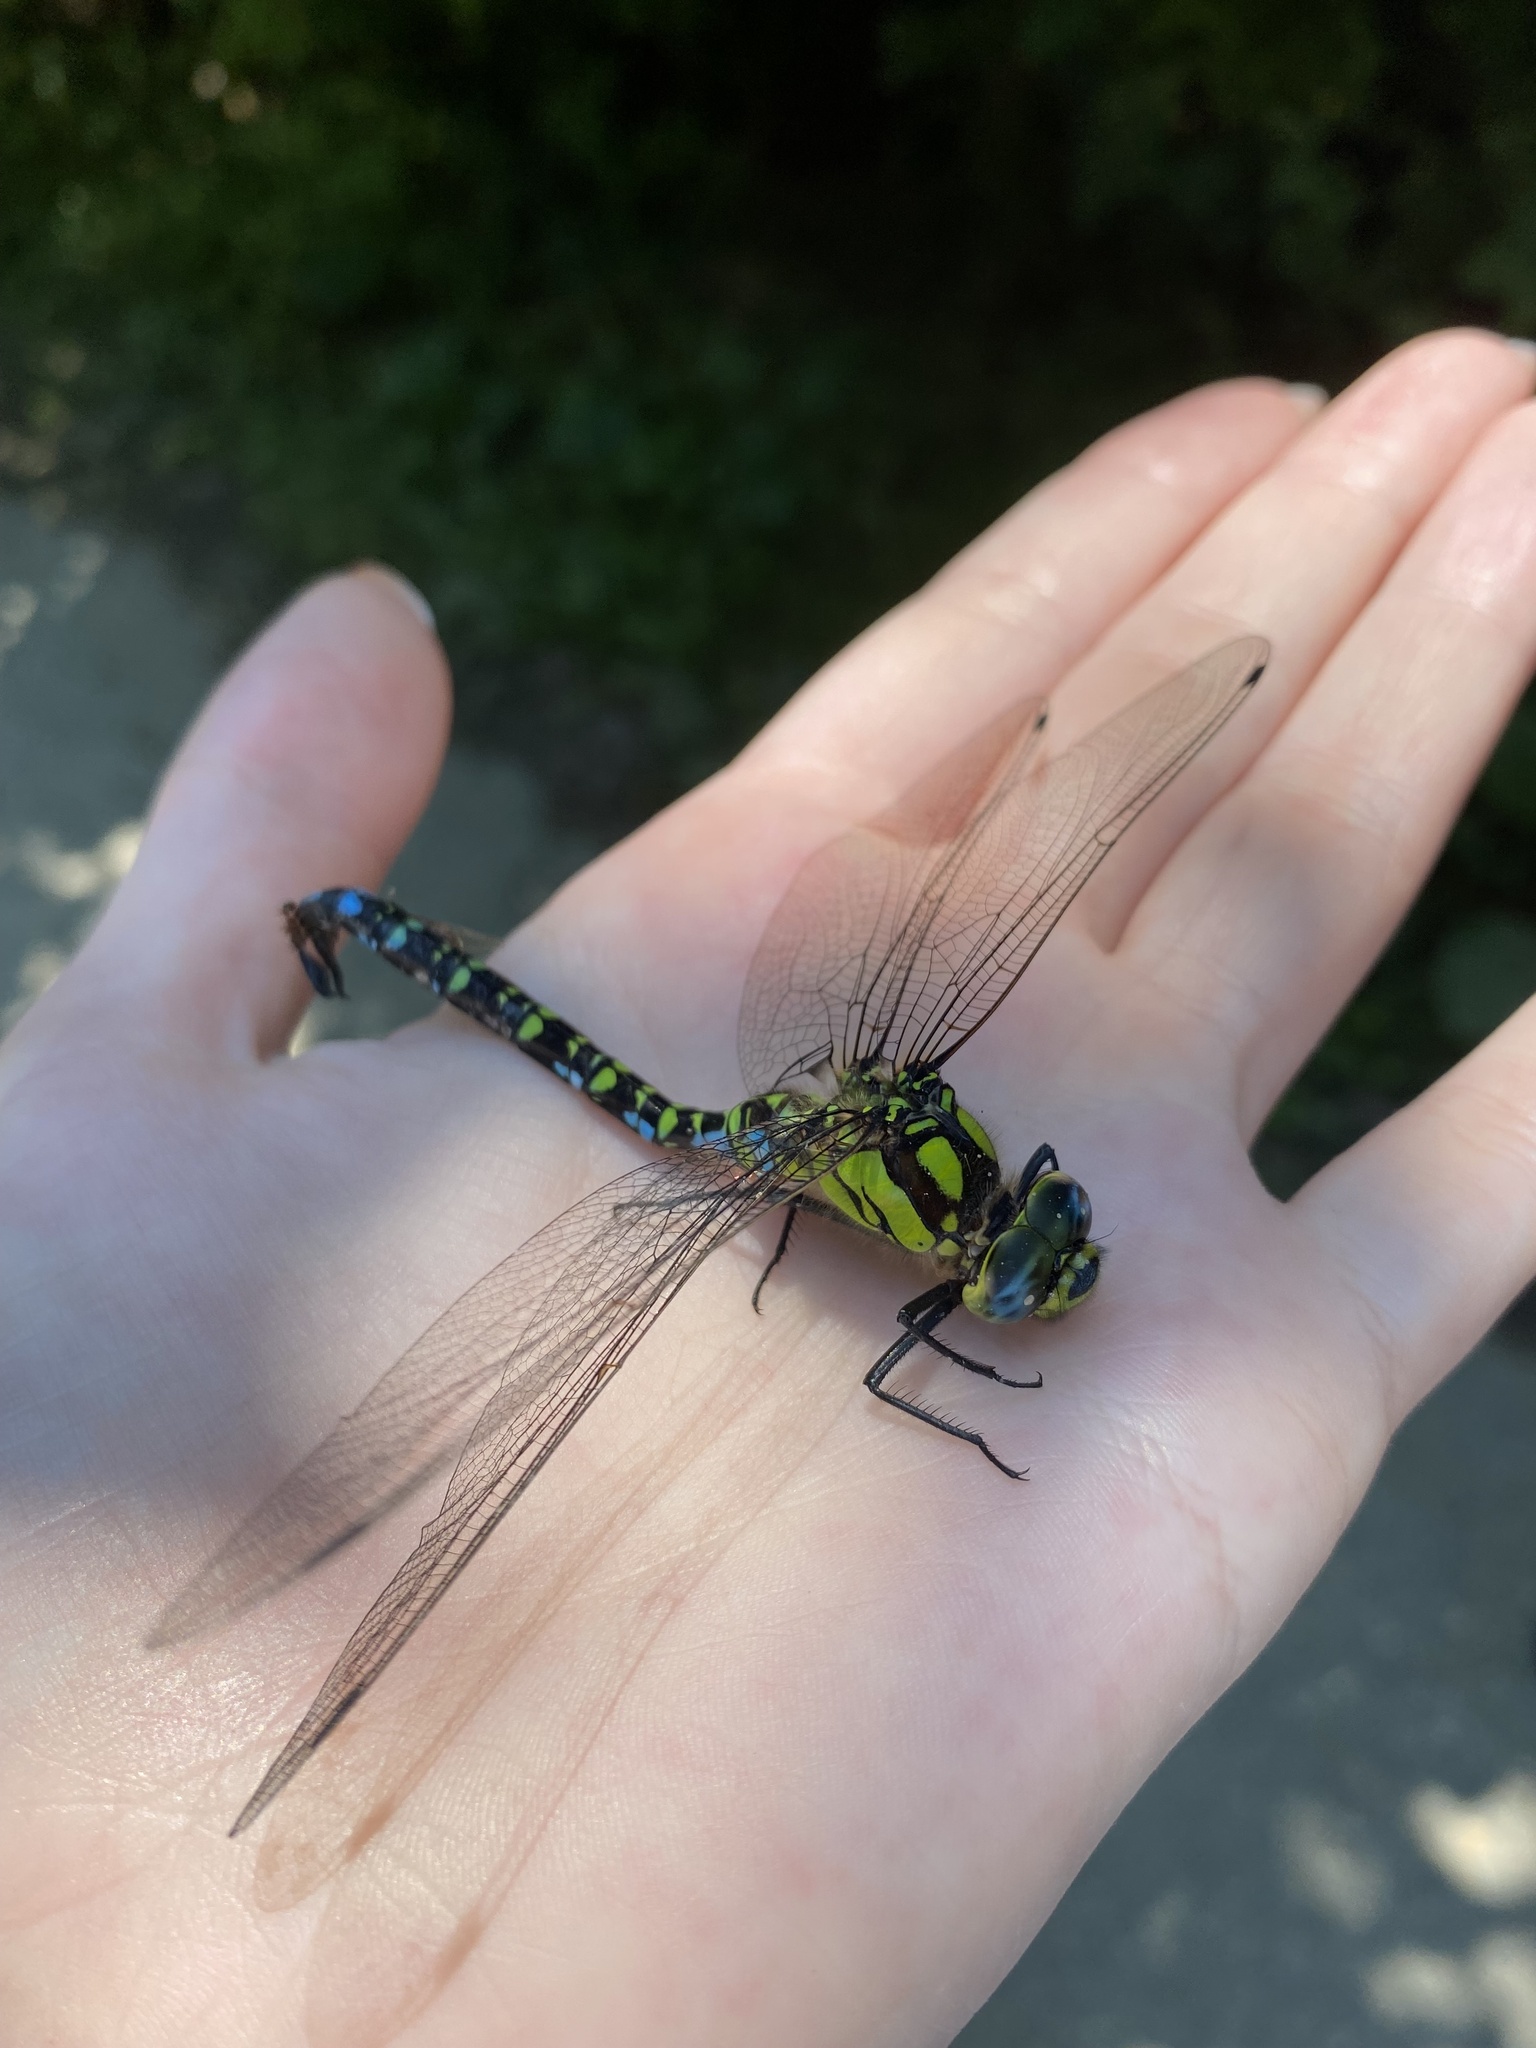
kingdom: Animalia
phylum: Arthropoda
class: Insecta
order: Odonata
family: Aeshnidae
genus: Aeshna
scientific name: Aeshna cyanea
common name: Southern hawker
